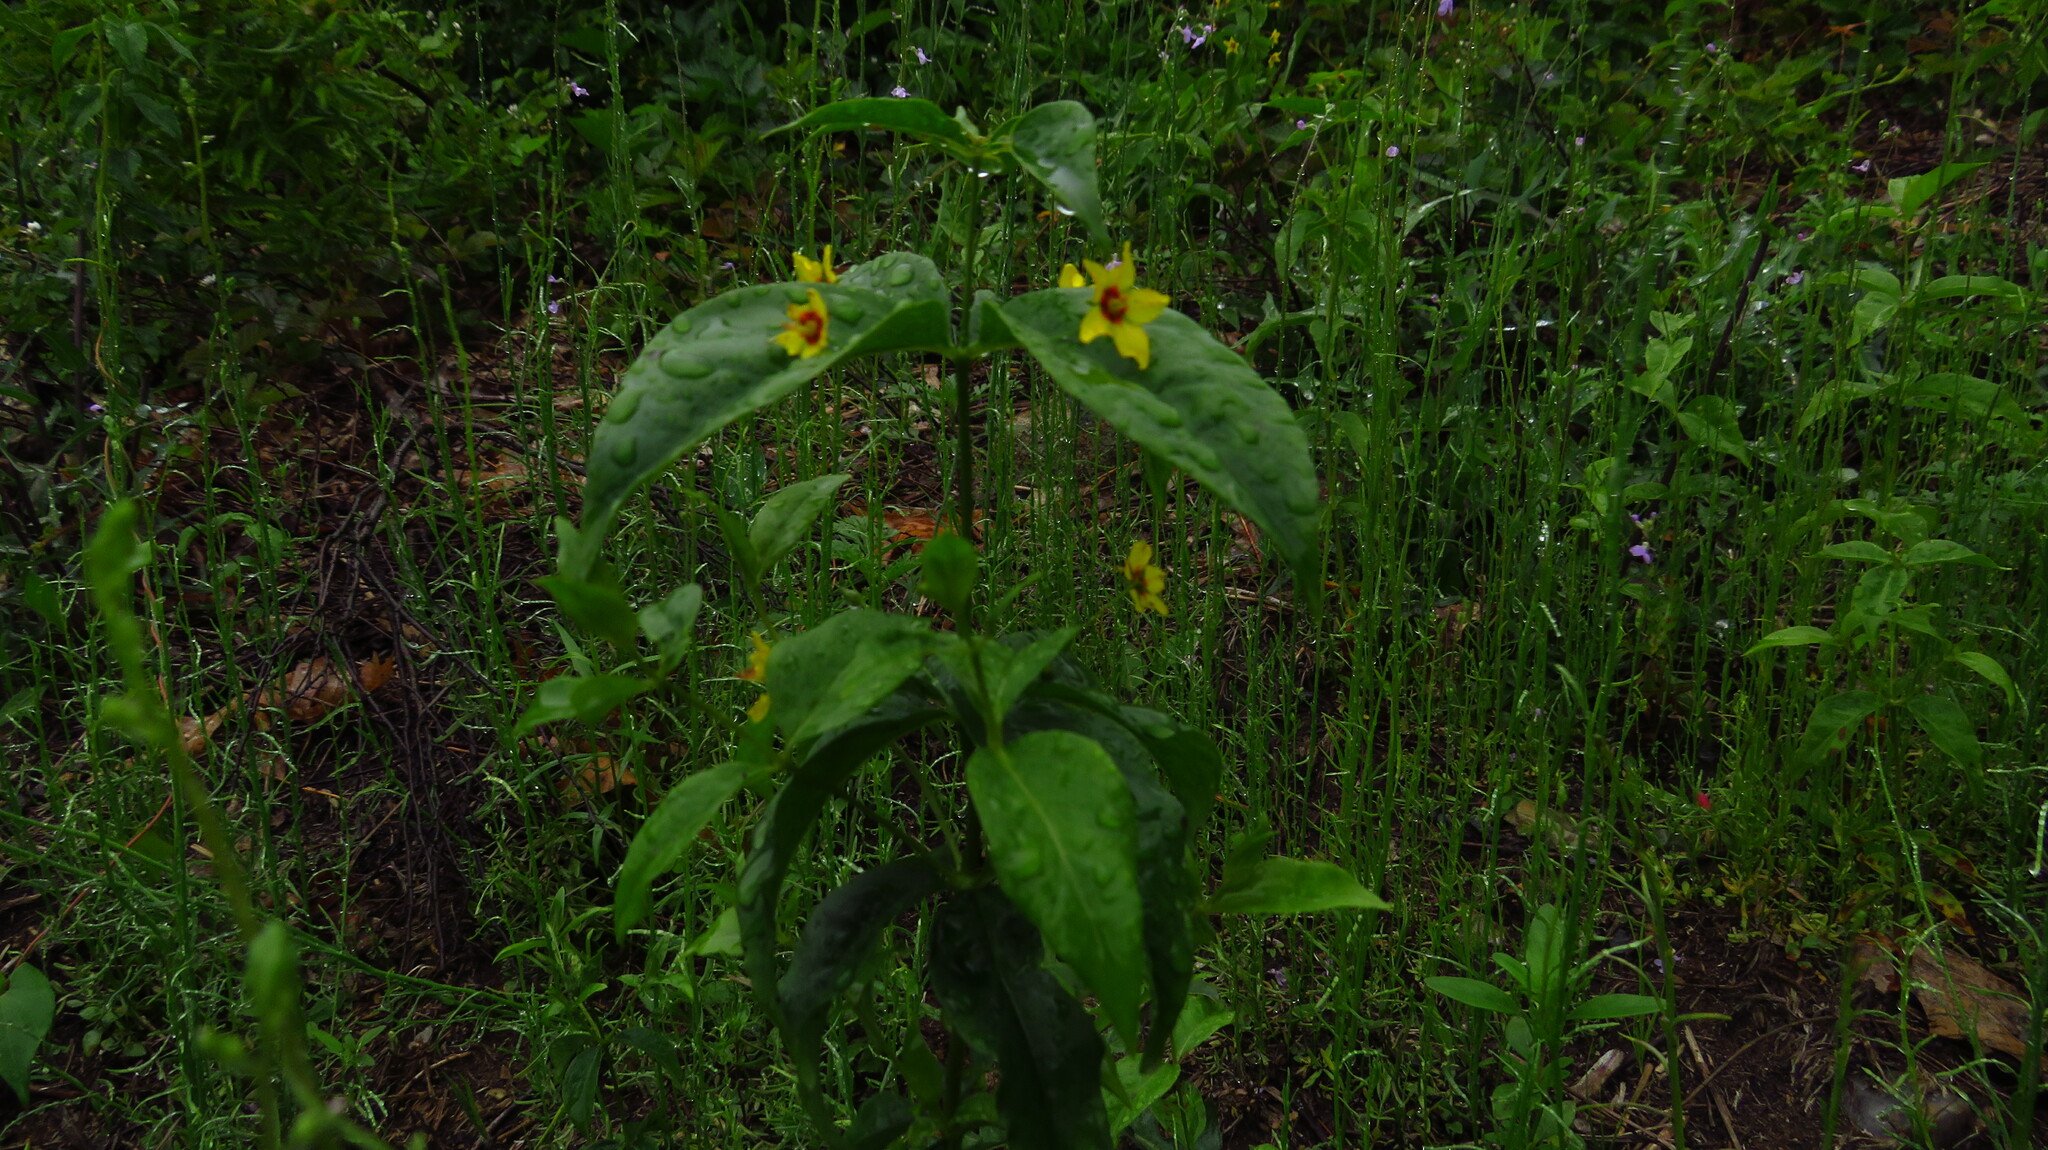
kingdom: Plantae
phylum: Tracheophyta
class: Magnoliopsida
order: Ericales
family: Primulaceae
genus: Lysimachia
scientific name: Lysimachia quadrifolia
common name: Whorled loosestrife
